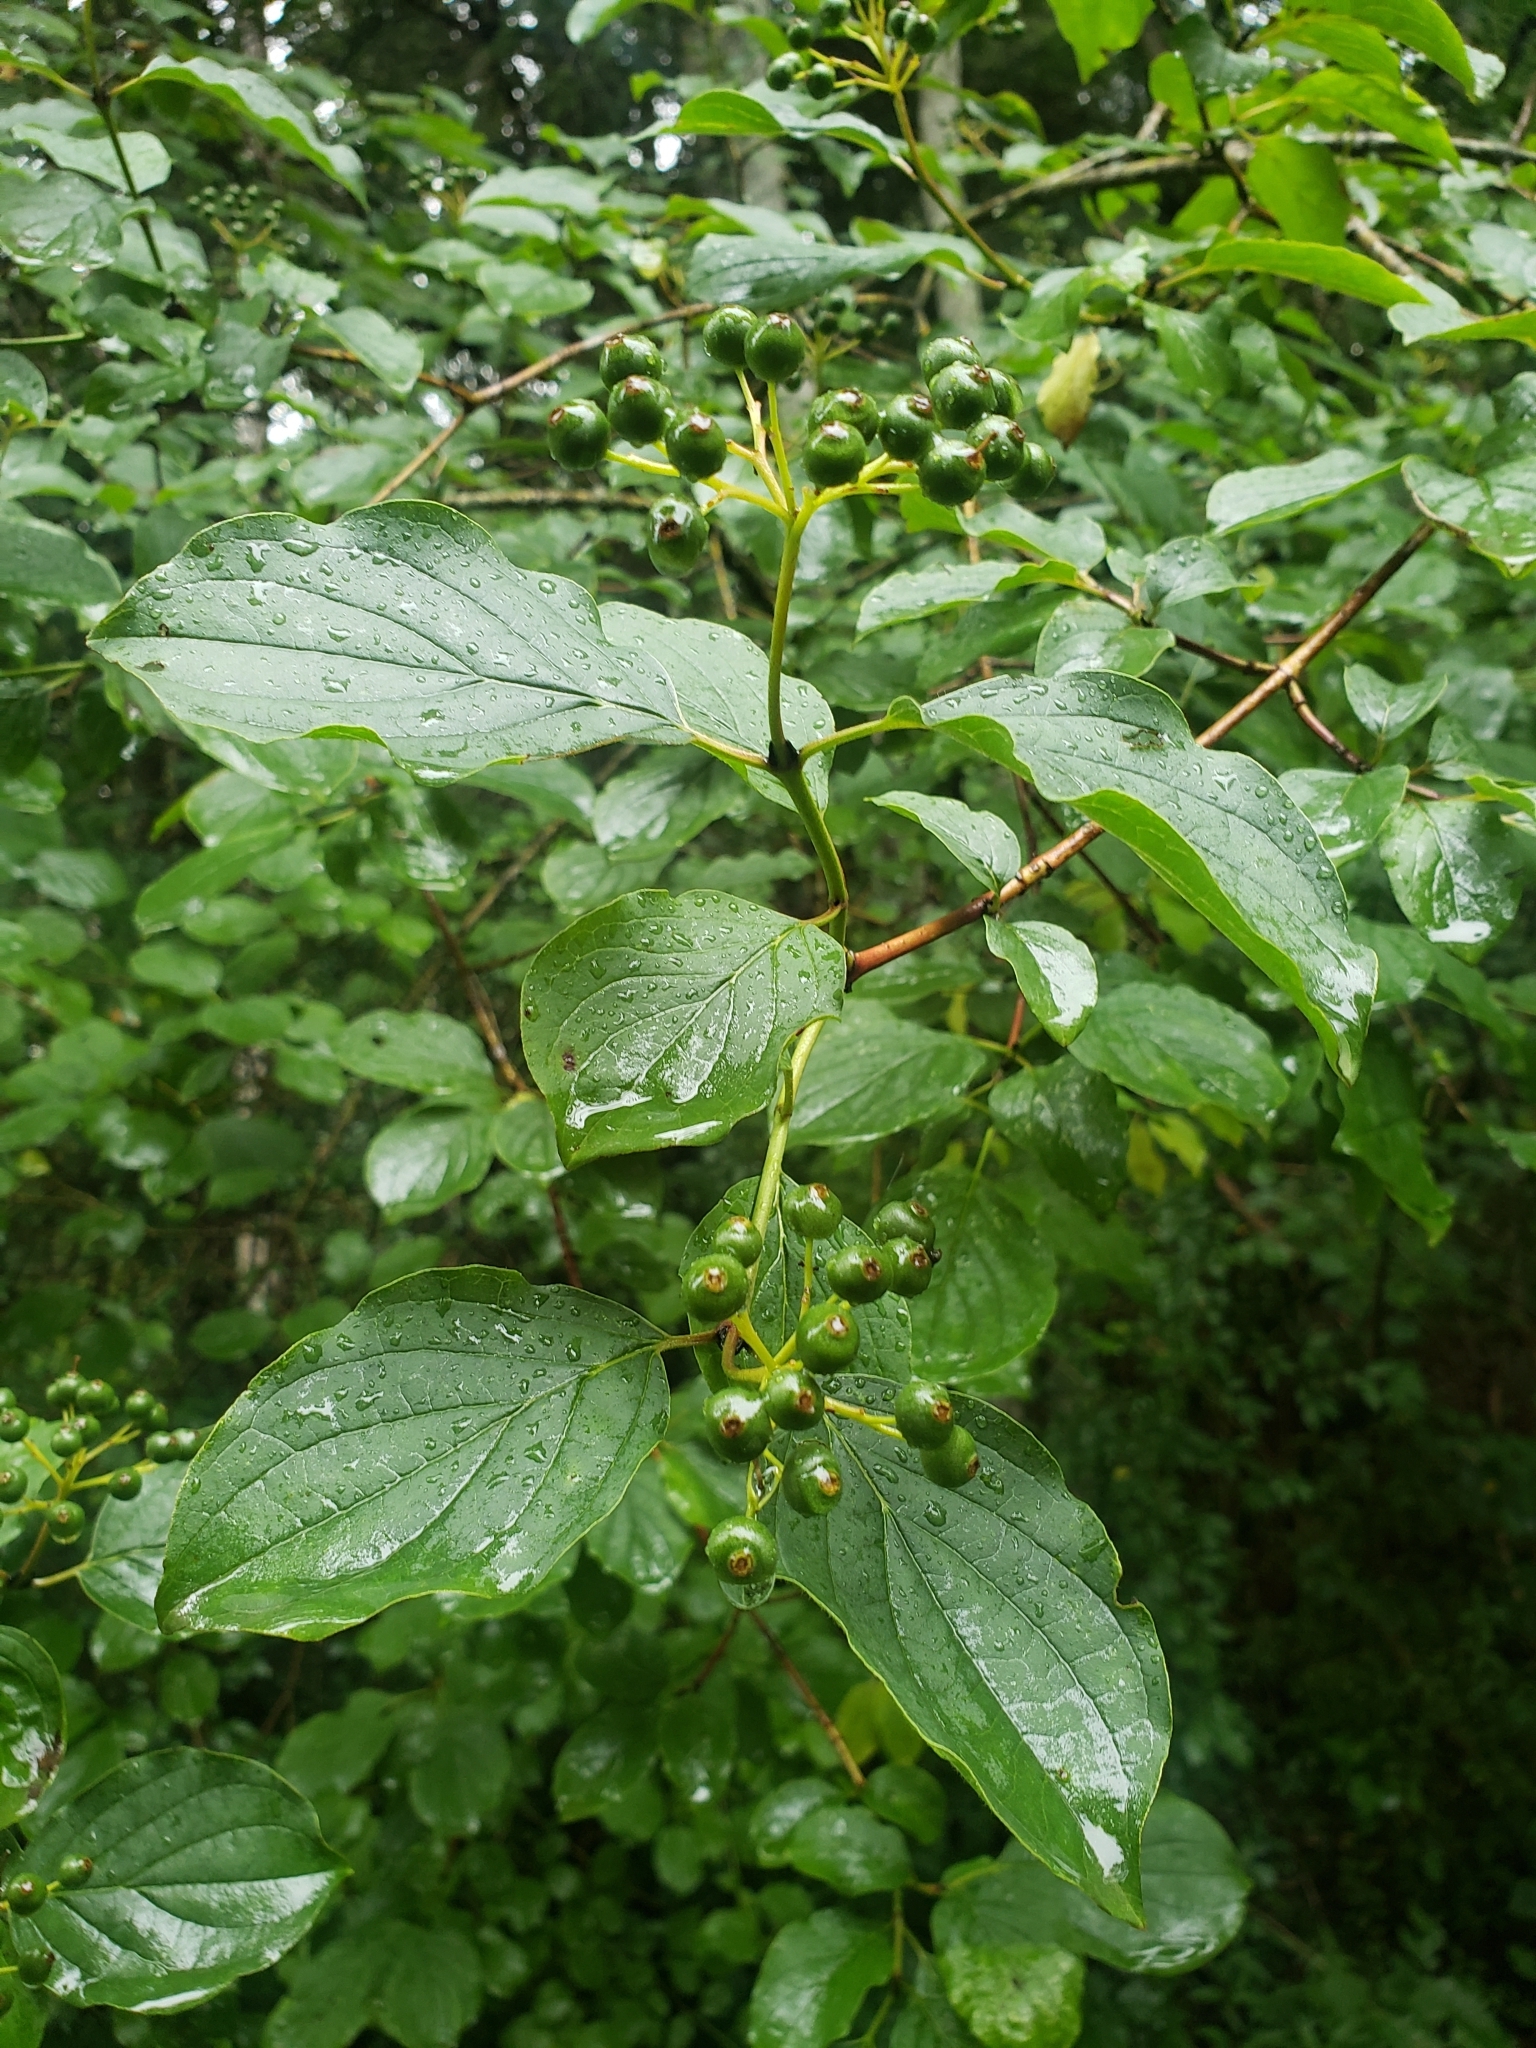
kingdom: Plantae
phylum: Tracheophyta
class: Magnoliopsida
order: Cornales
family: Cornaceae
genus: Cornus
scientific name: Cornus sanguinea
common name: Dogwood
